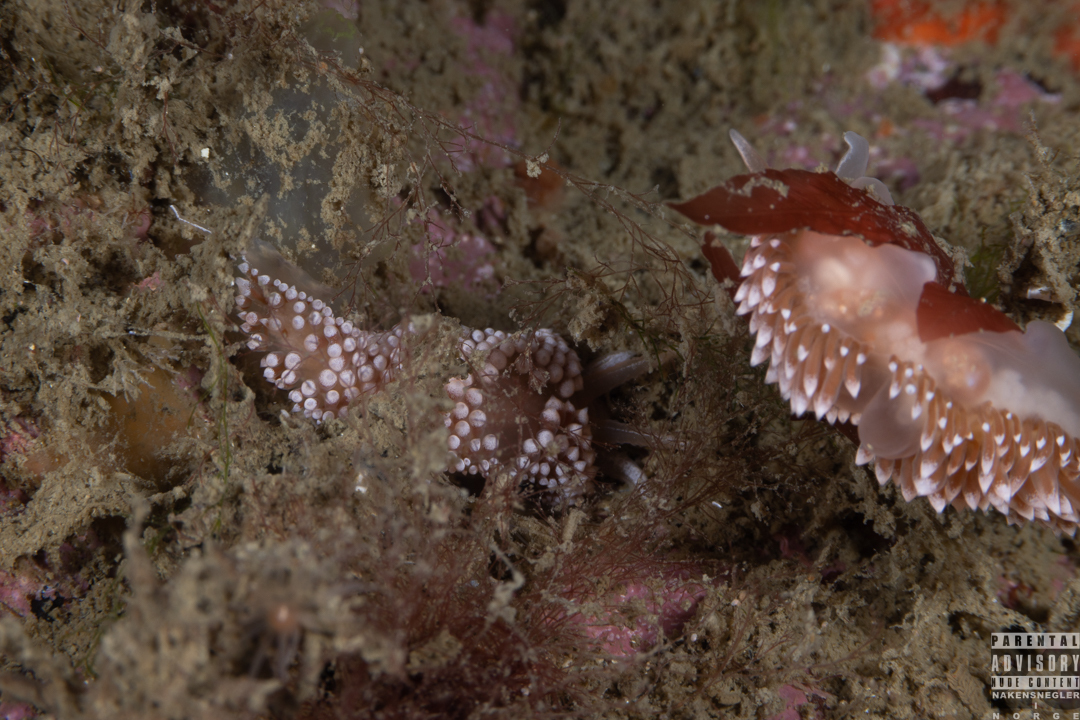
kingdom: Animalia
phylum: Mollusca
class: Gastropoda
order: Nudibranchia
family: Coryphellidae
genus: Coryphella
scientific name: Coryphella verrucosa
